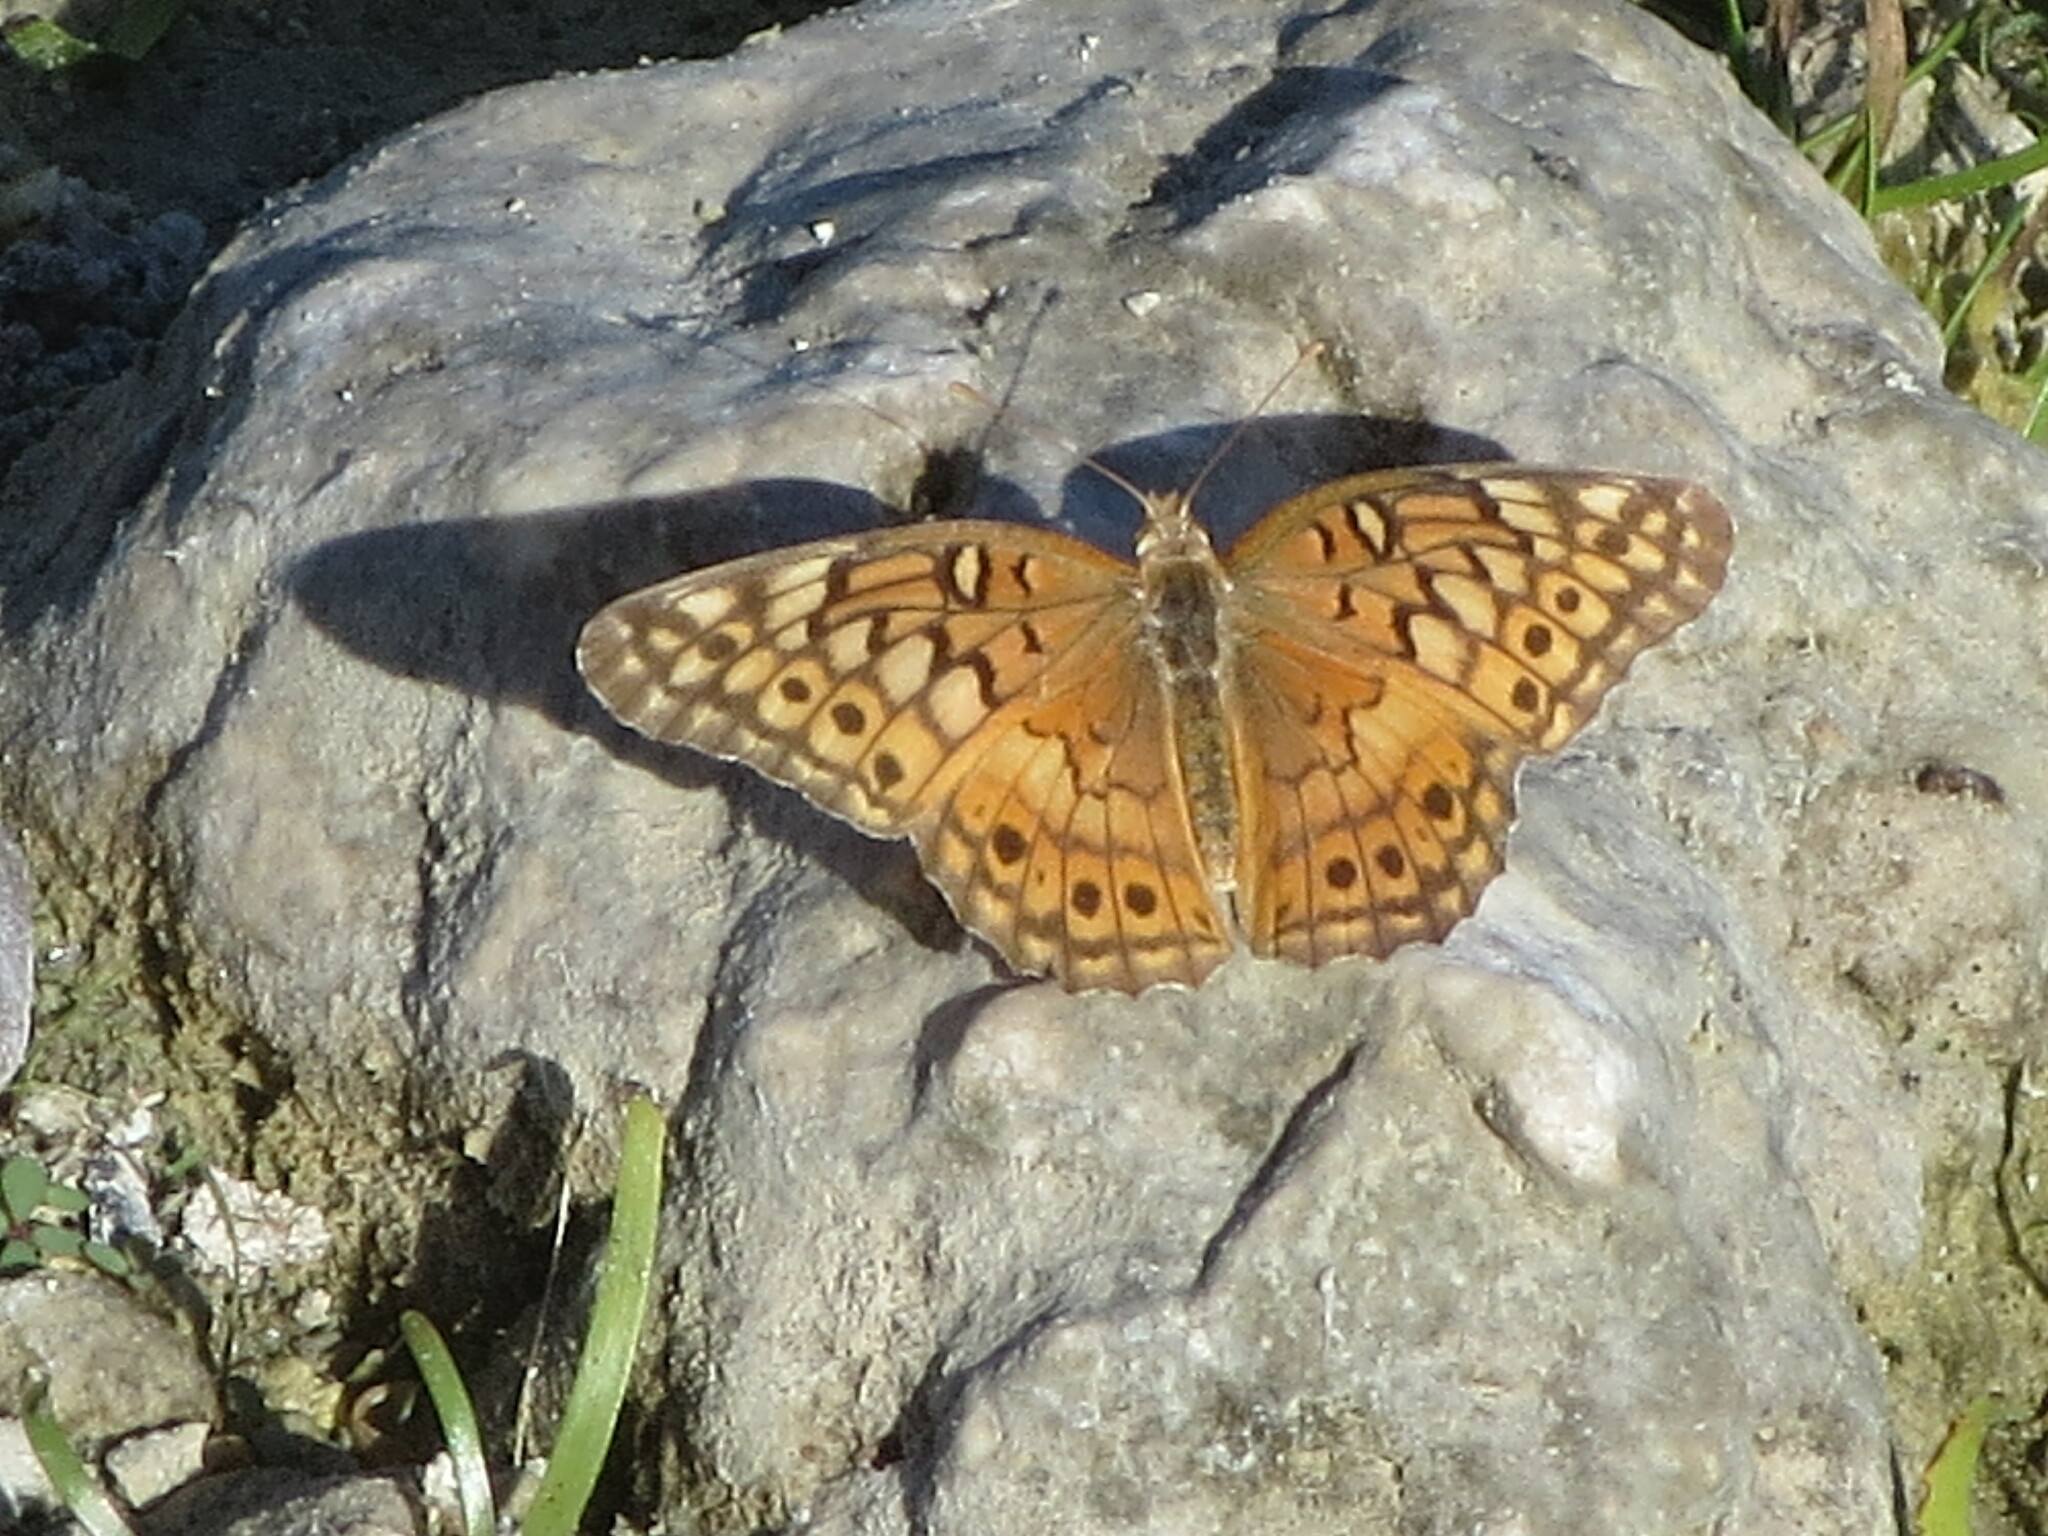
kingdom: Animalia
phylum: Arthropoda
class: Insecta
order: Lepidoptera
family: Nymphalidae
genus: Euptoieta
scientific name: Euptoieta claudia
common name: Variegated fritillary
